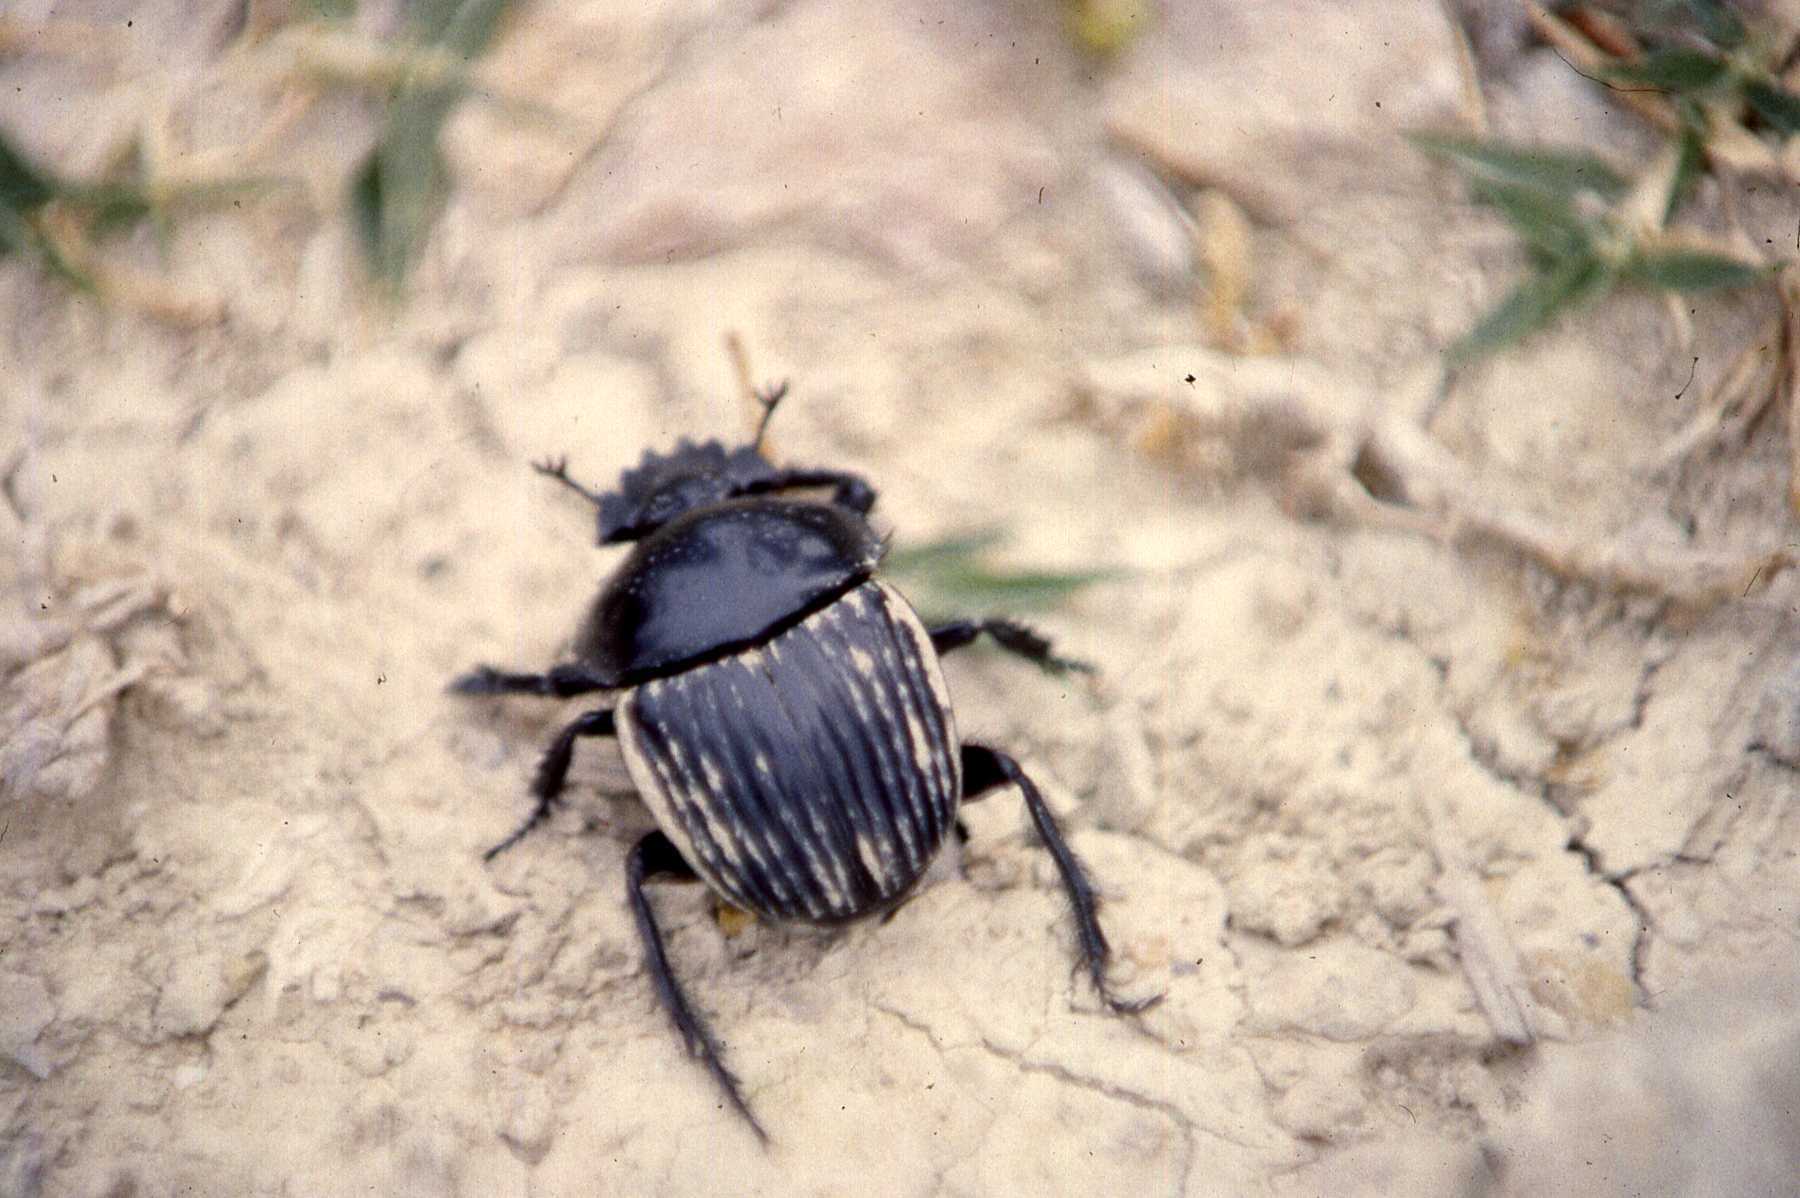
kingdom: Animalia
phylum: Arthropoda
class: Insecta
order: Coleoptera
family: Scarabaeidae
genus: Ateuchetus
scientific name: Ateuchetus laticollis
